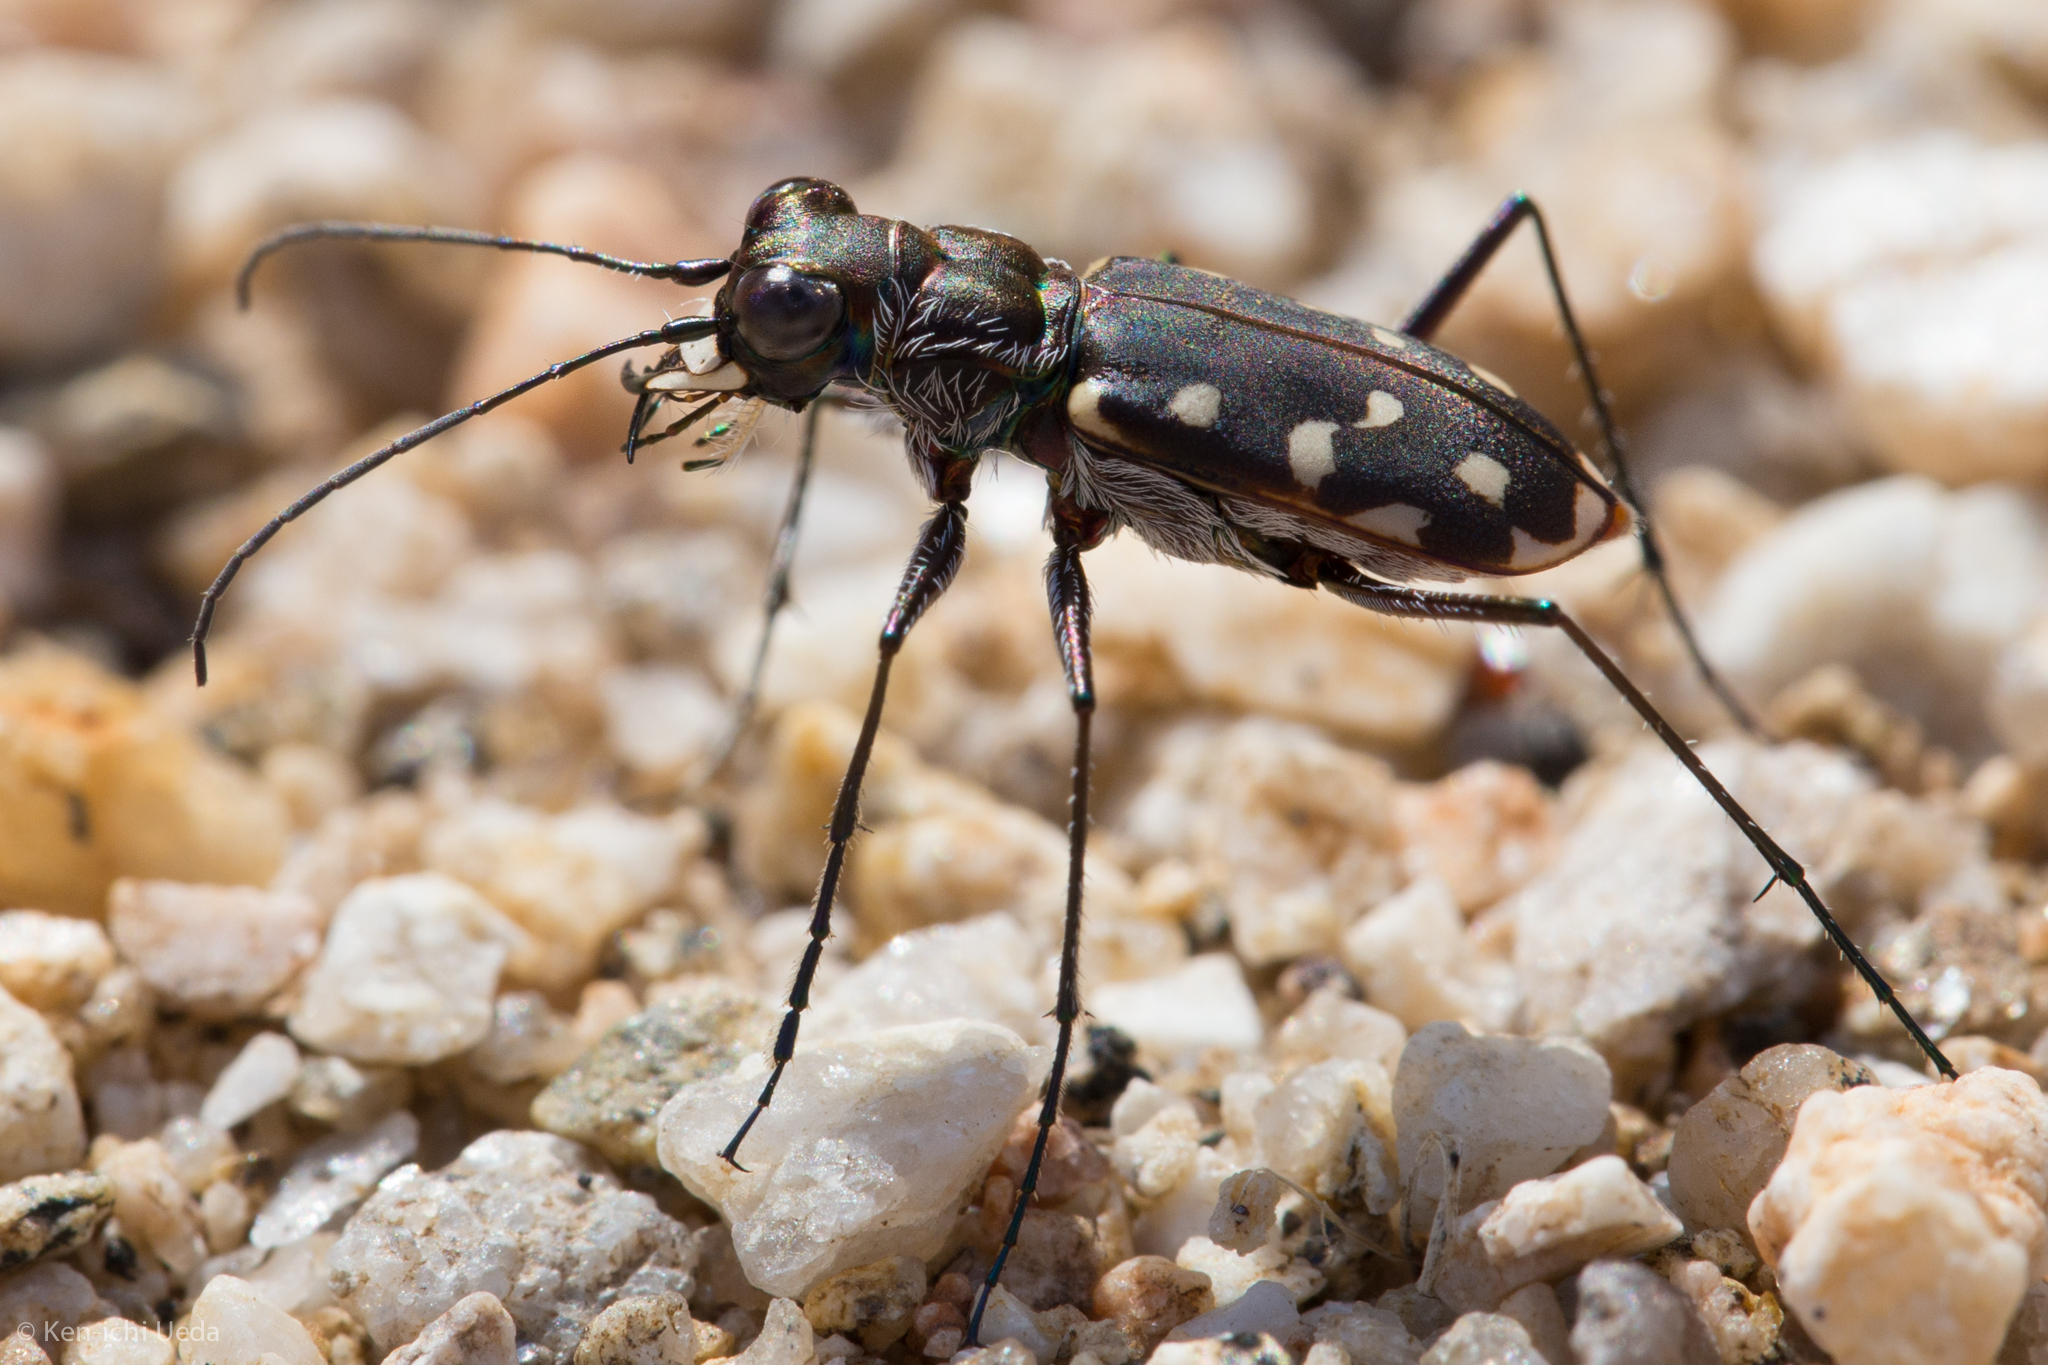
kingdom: Animalia
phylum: Arthropoda
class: Insecta
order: Coleoptera
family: Carabidae
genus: Cicindela
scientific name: Cicindela sedecimpunctata
